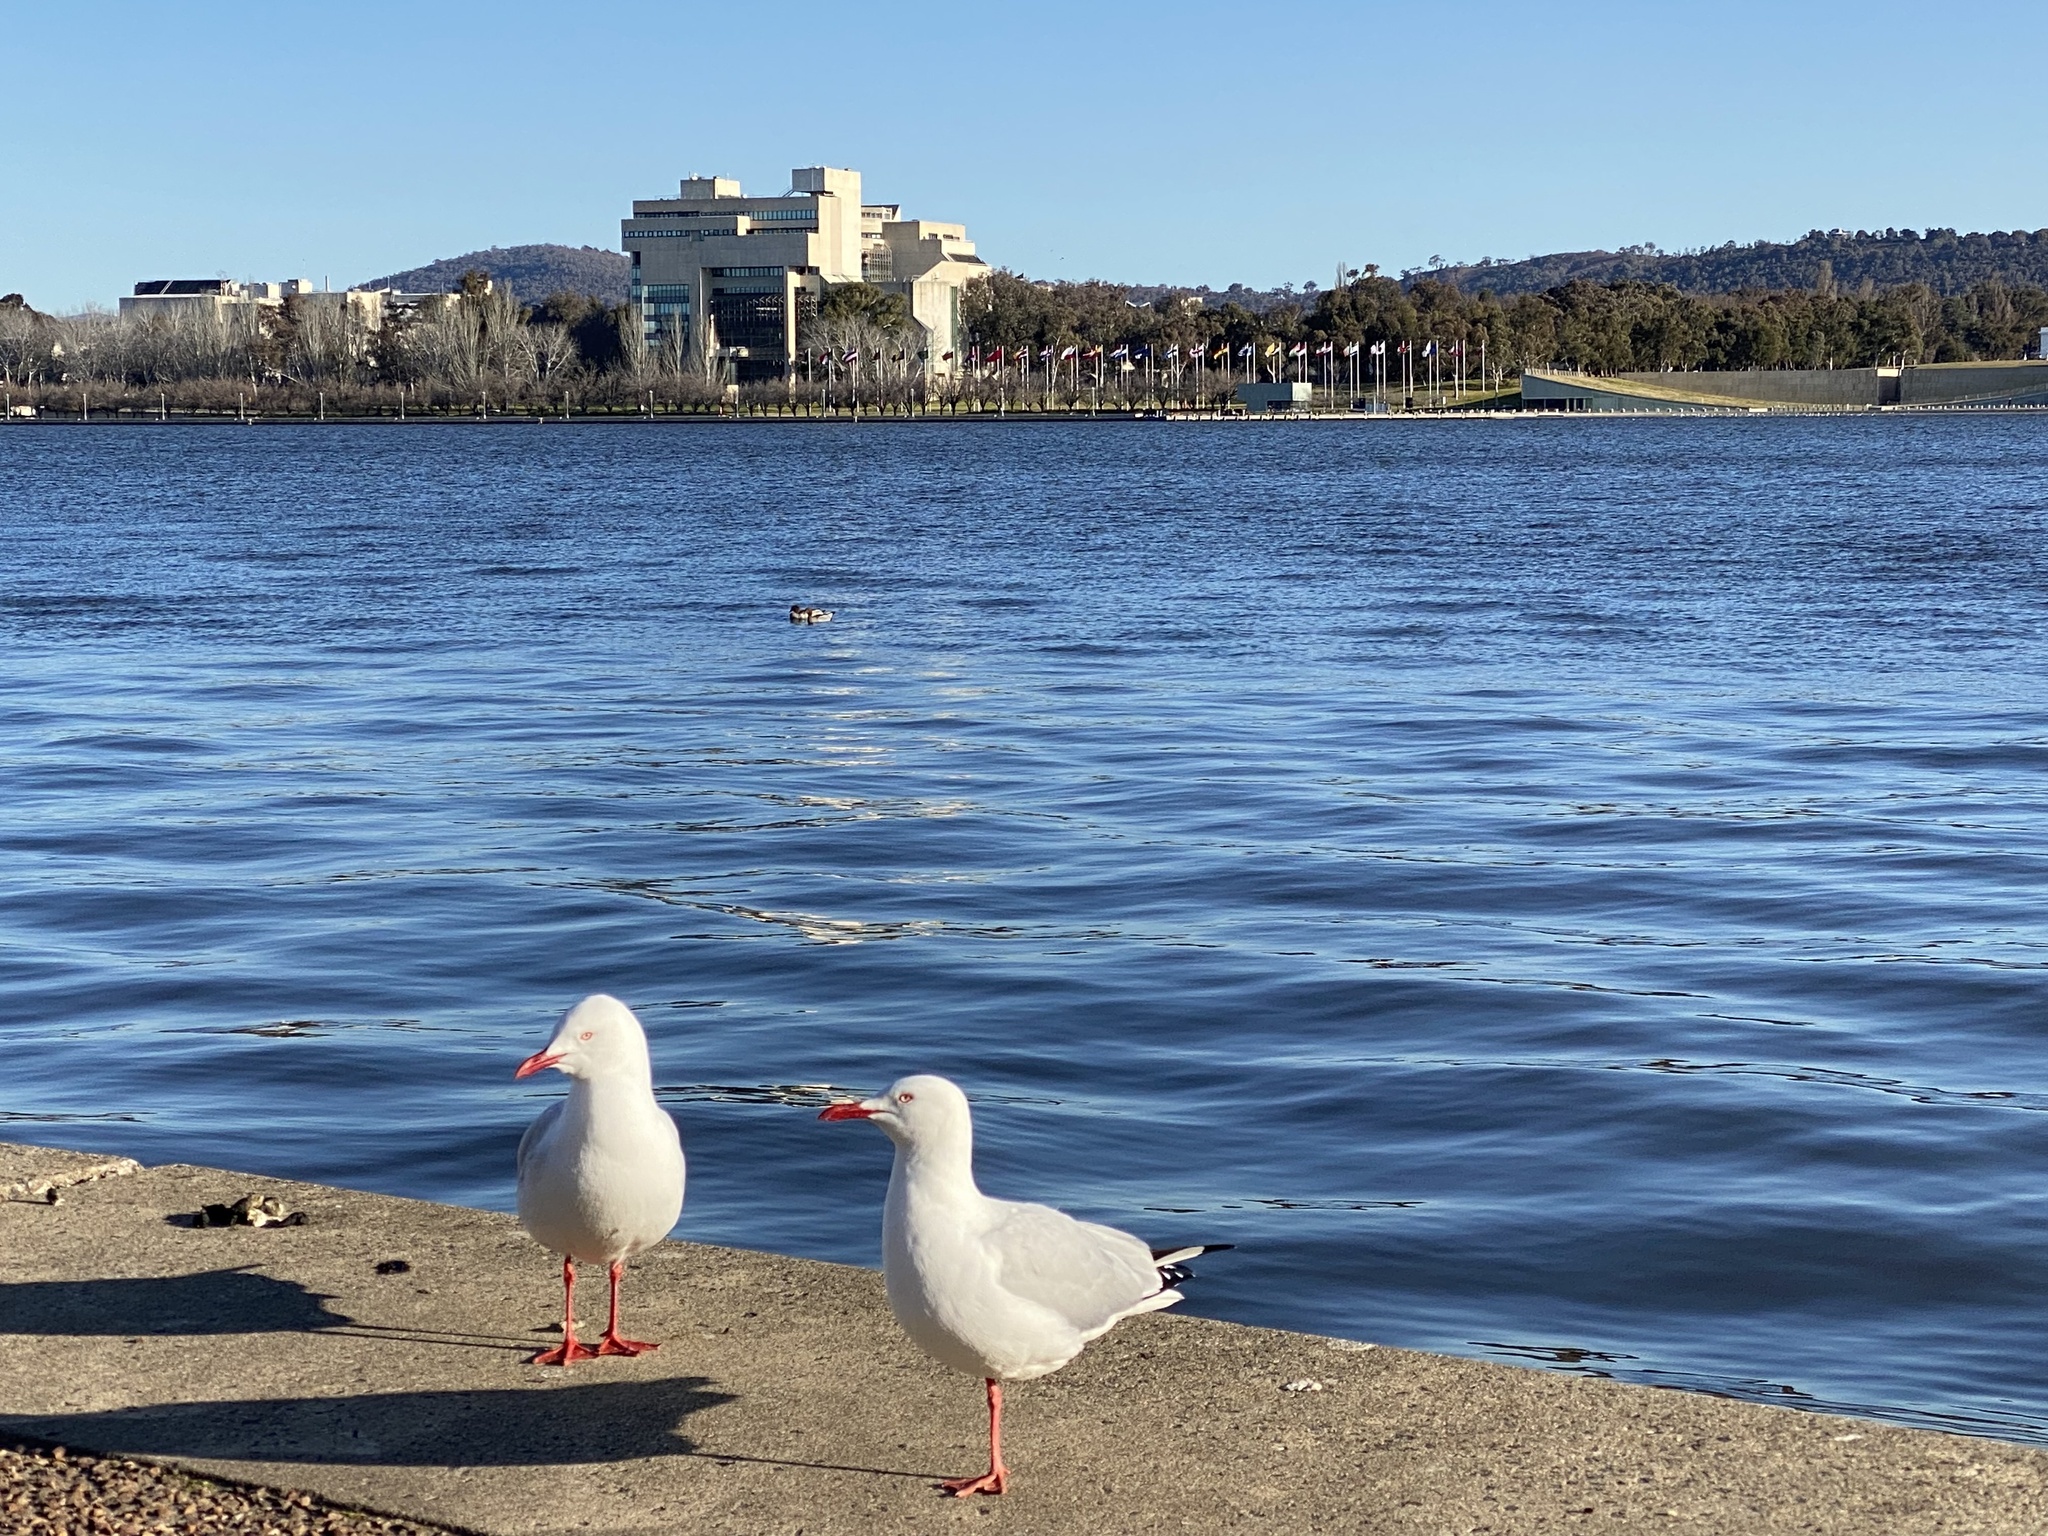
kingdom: Animalia
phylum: Chordata
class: Aves
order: Charadriiformes
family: Laridae
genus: Chroicocephalus
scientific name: Chroicocephalus novaehollandiae
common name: Silver gull
